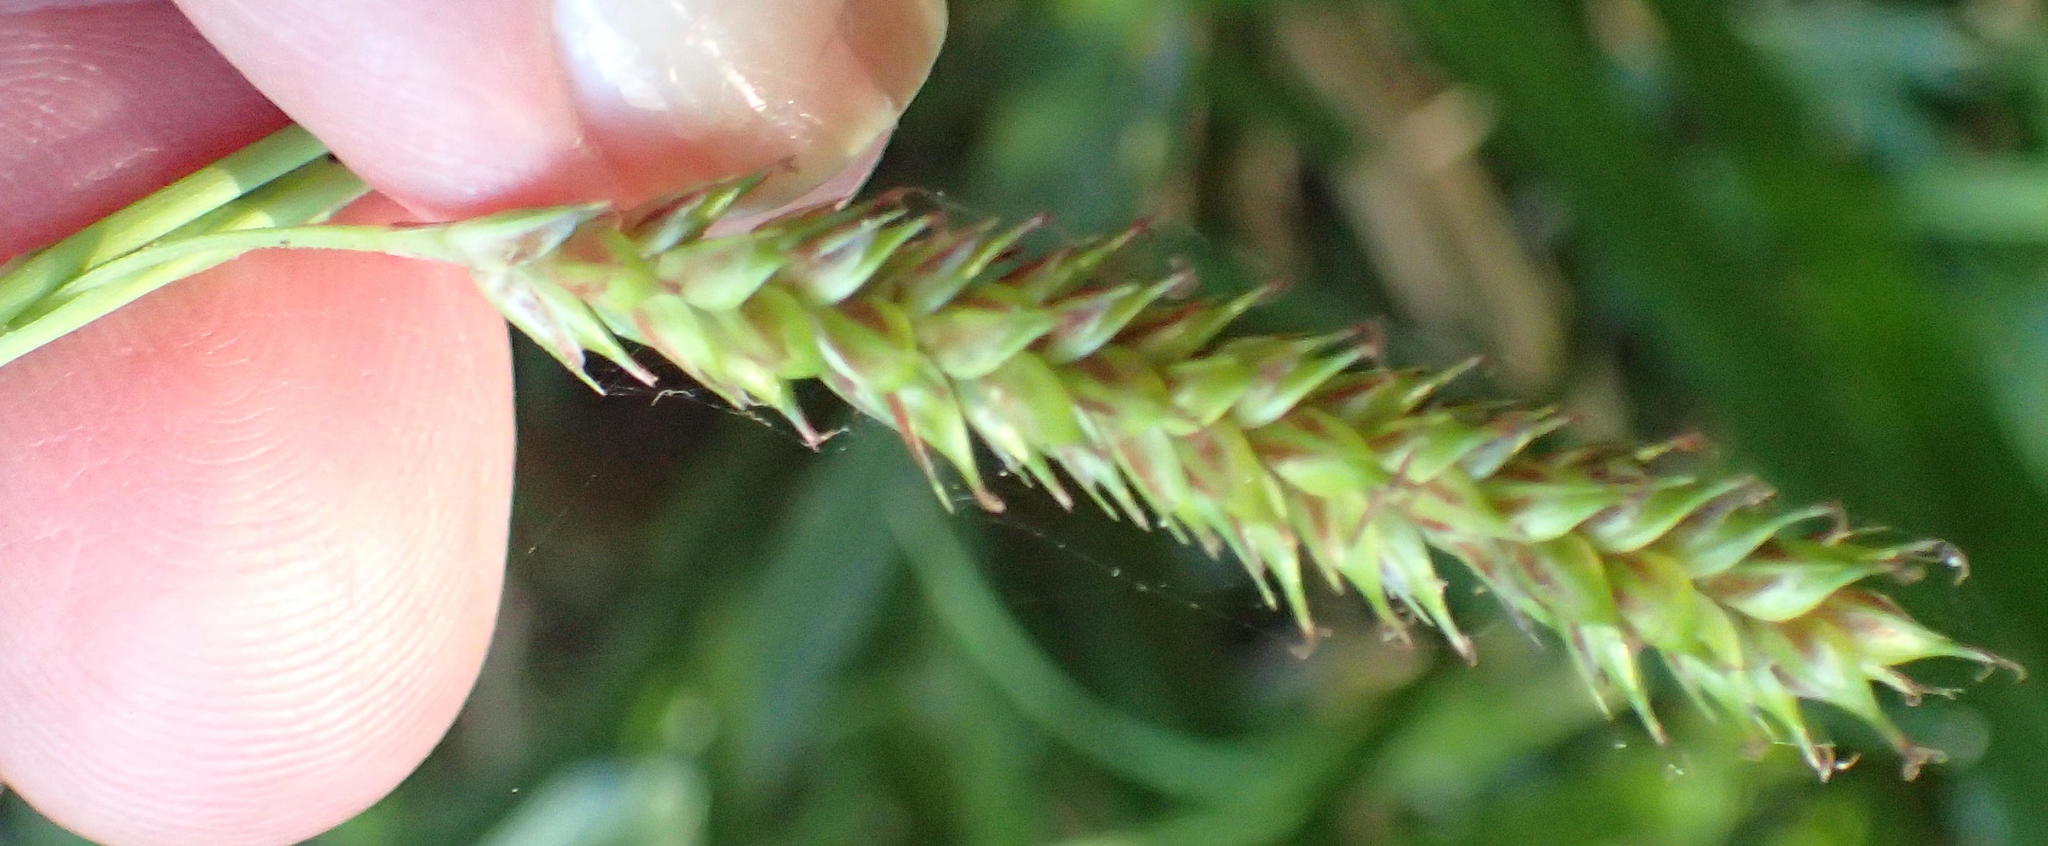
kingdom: Plantae
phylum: Tracheophyta
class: Liliopsida
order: Poales
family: Cyperaceae
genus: Carex
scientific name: Carex aethiopica
